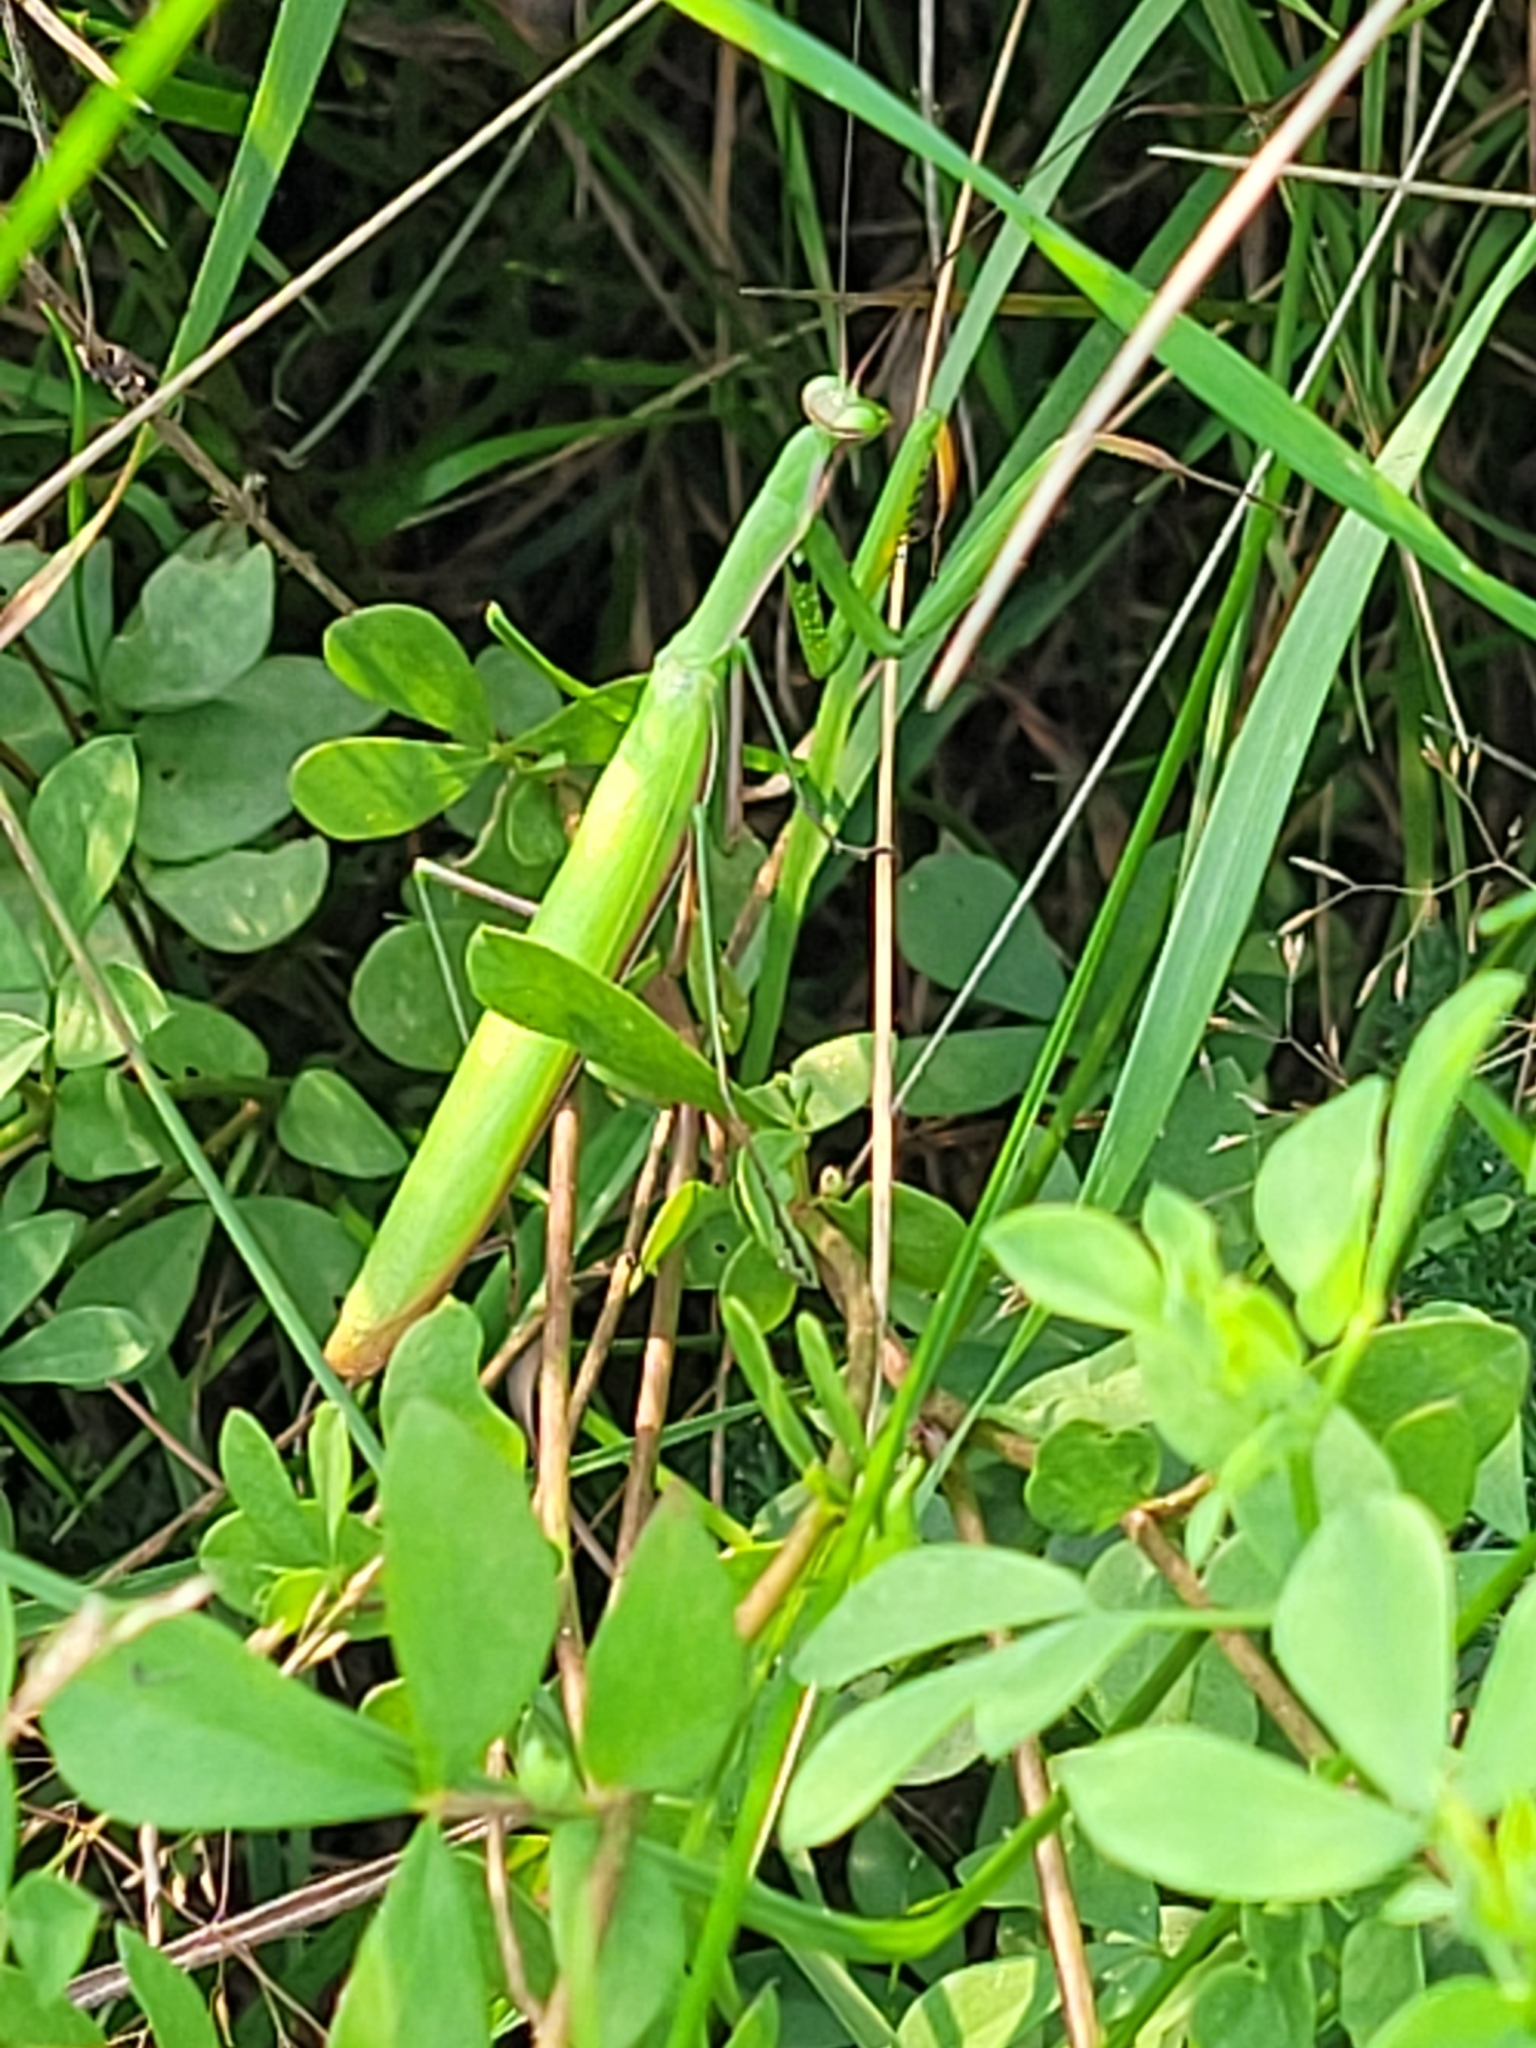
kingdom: Animalia
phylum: Arthropoda
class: Insecta
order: Mantodea
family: Mantidae
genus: Mantis
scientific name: Mantis religiosa
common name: Praying mantis
